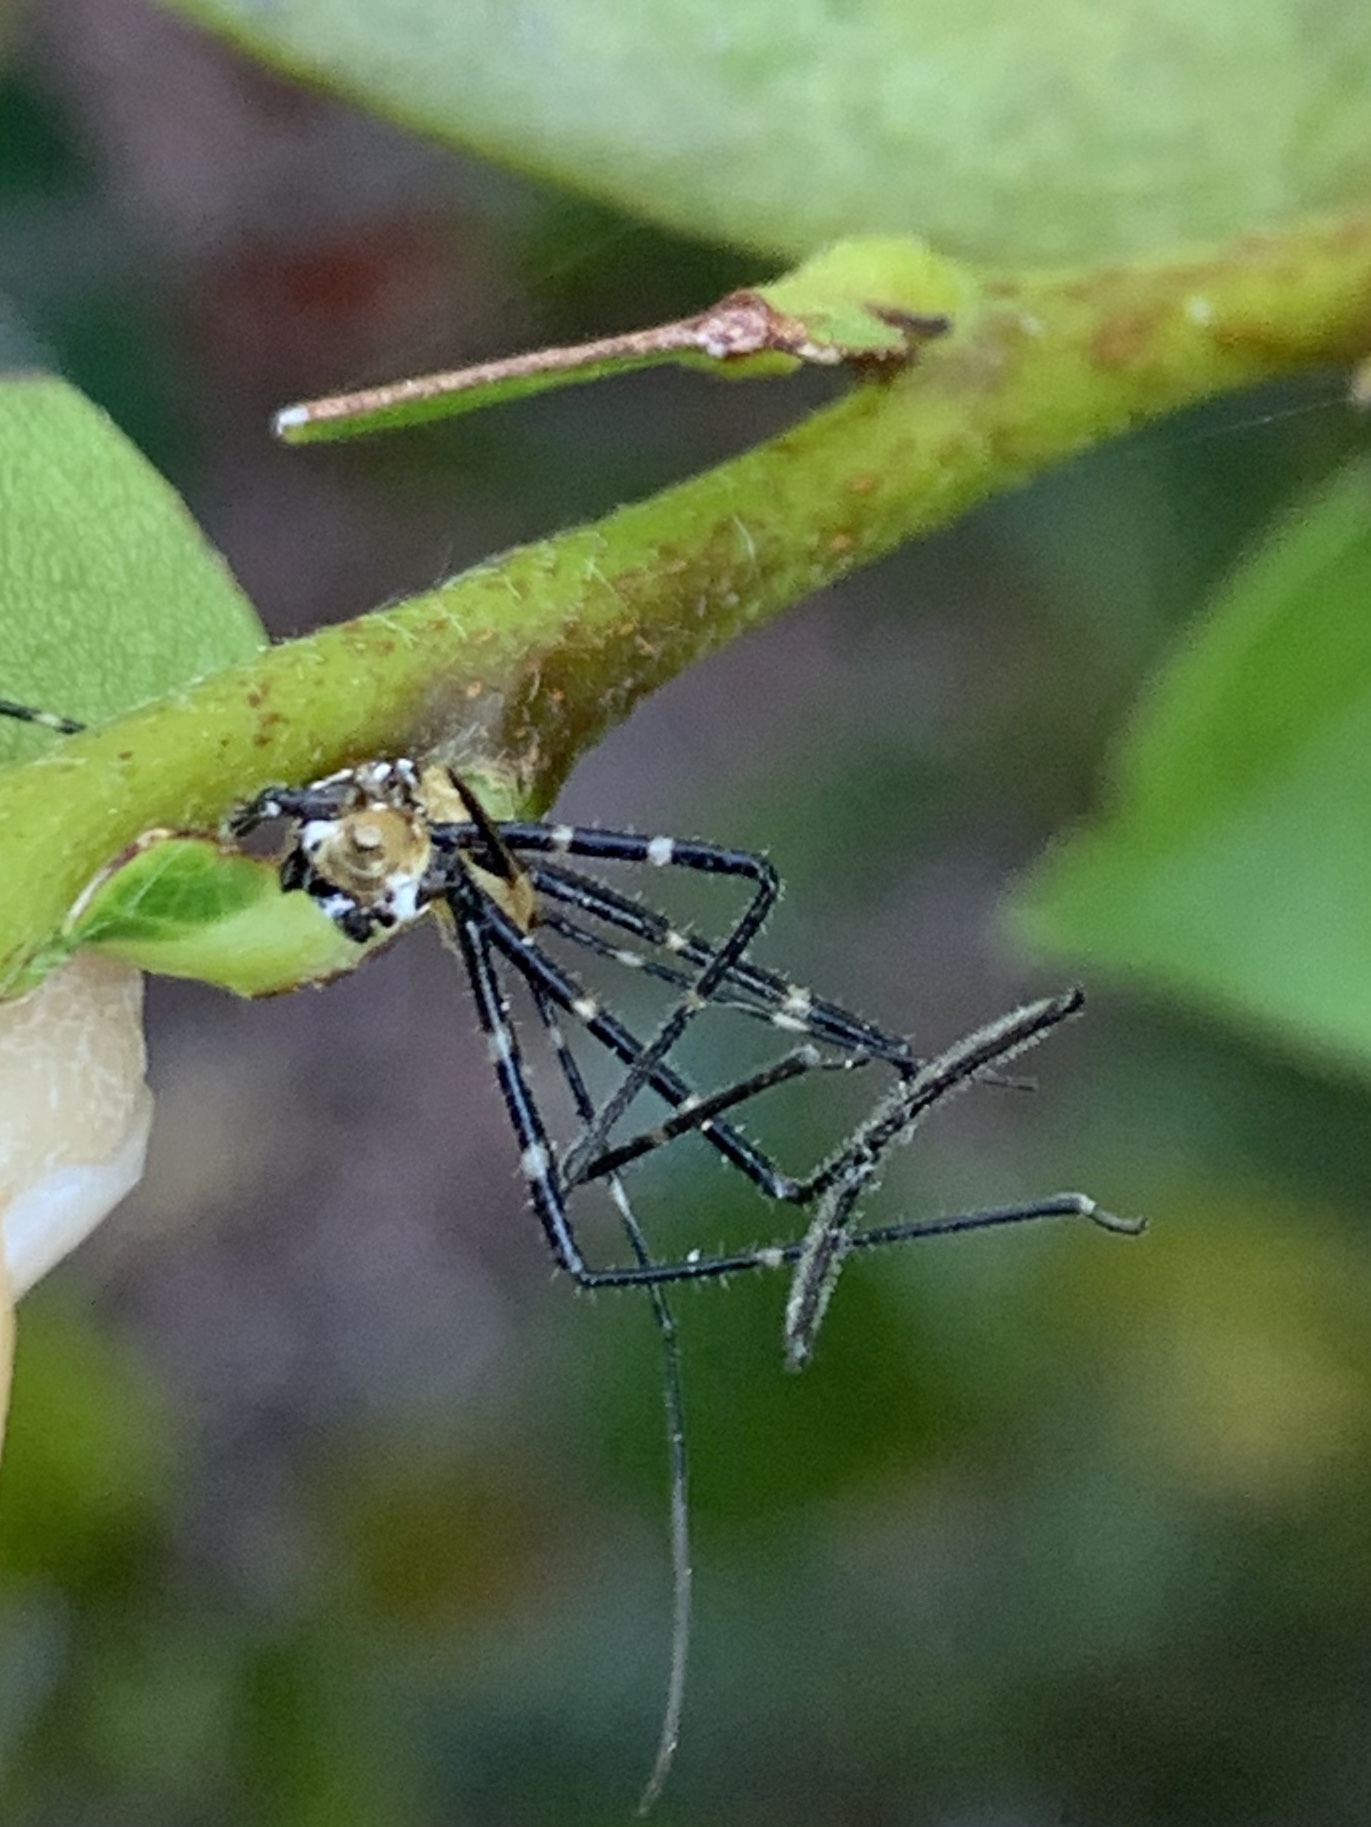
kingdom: Animalia
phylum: Arthropoda
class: Insecta
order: Hemiptera
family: Reduviidae
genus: Zelus
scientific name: Zelus longipes
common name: Milkweed assassin bug
